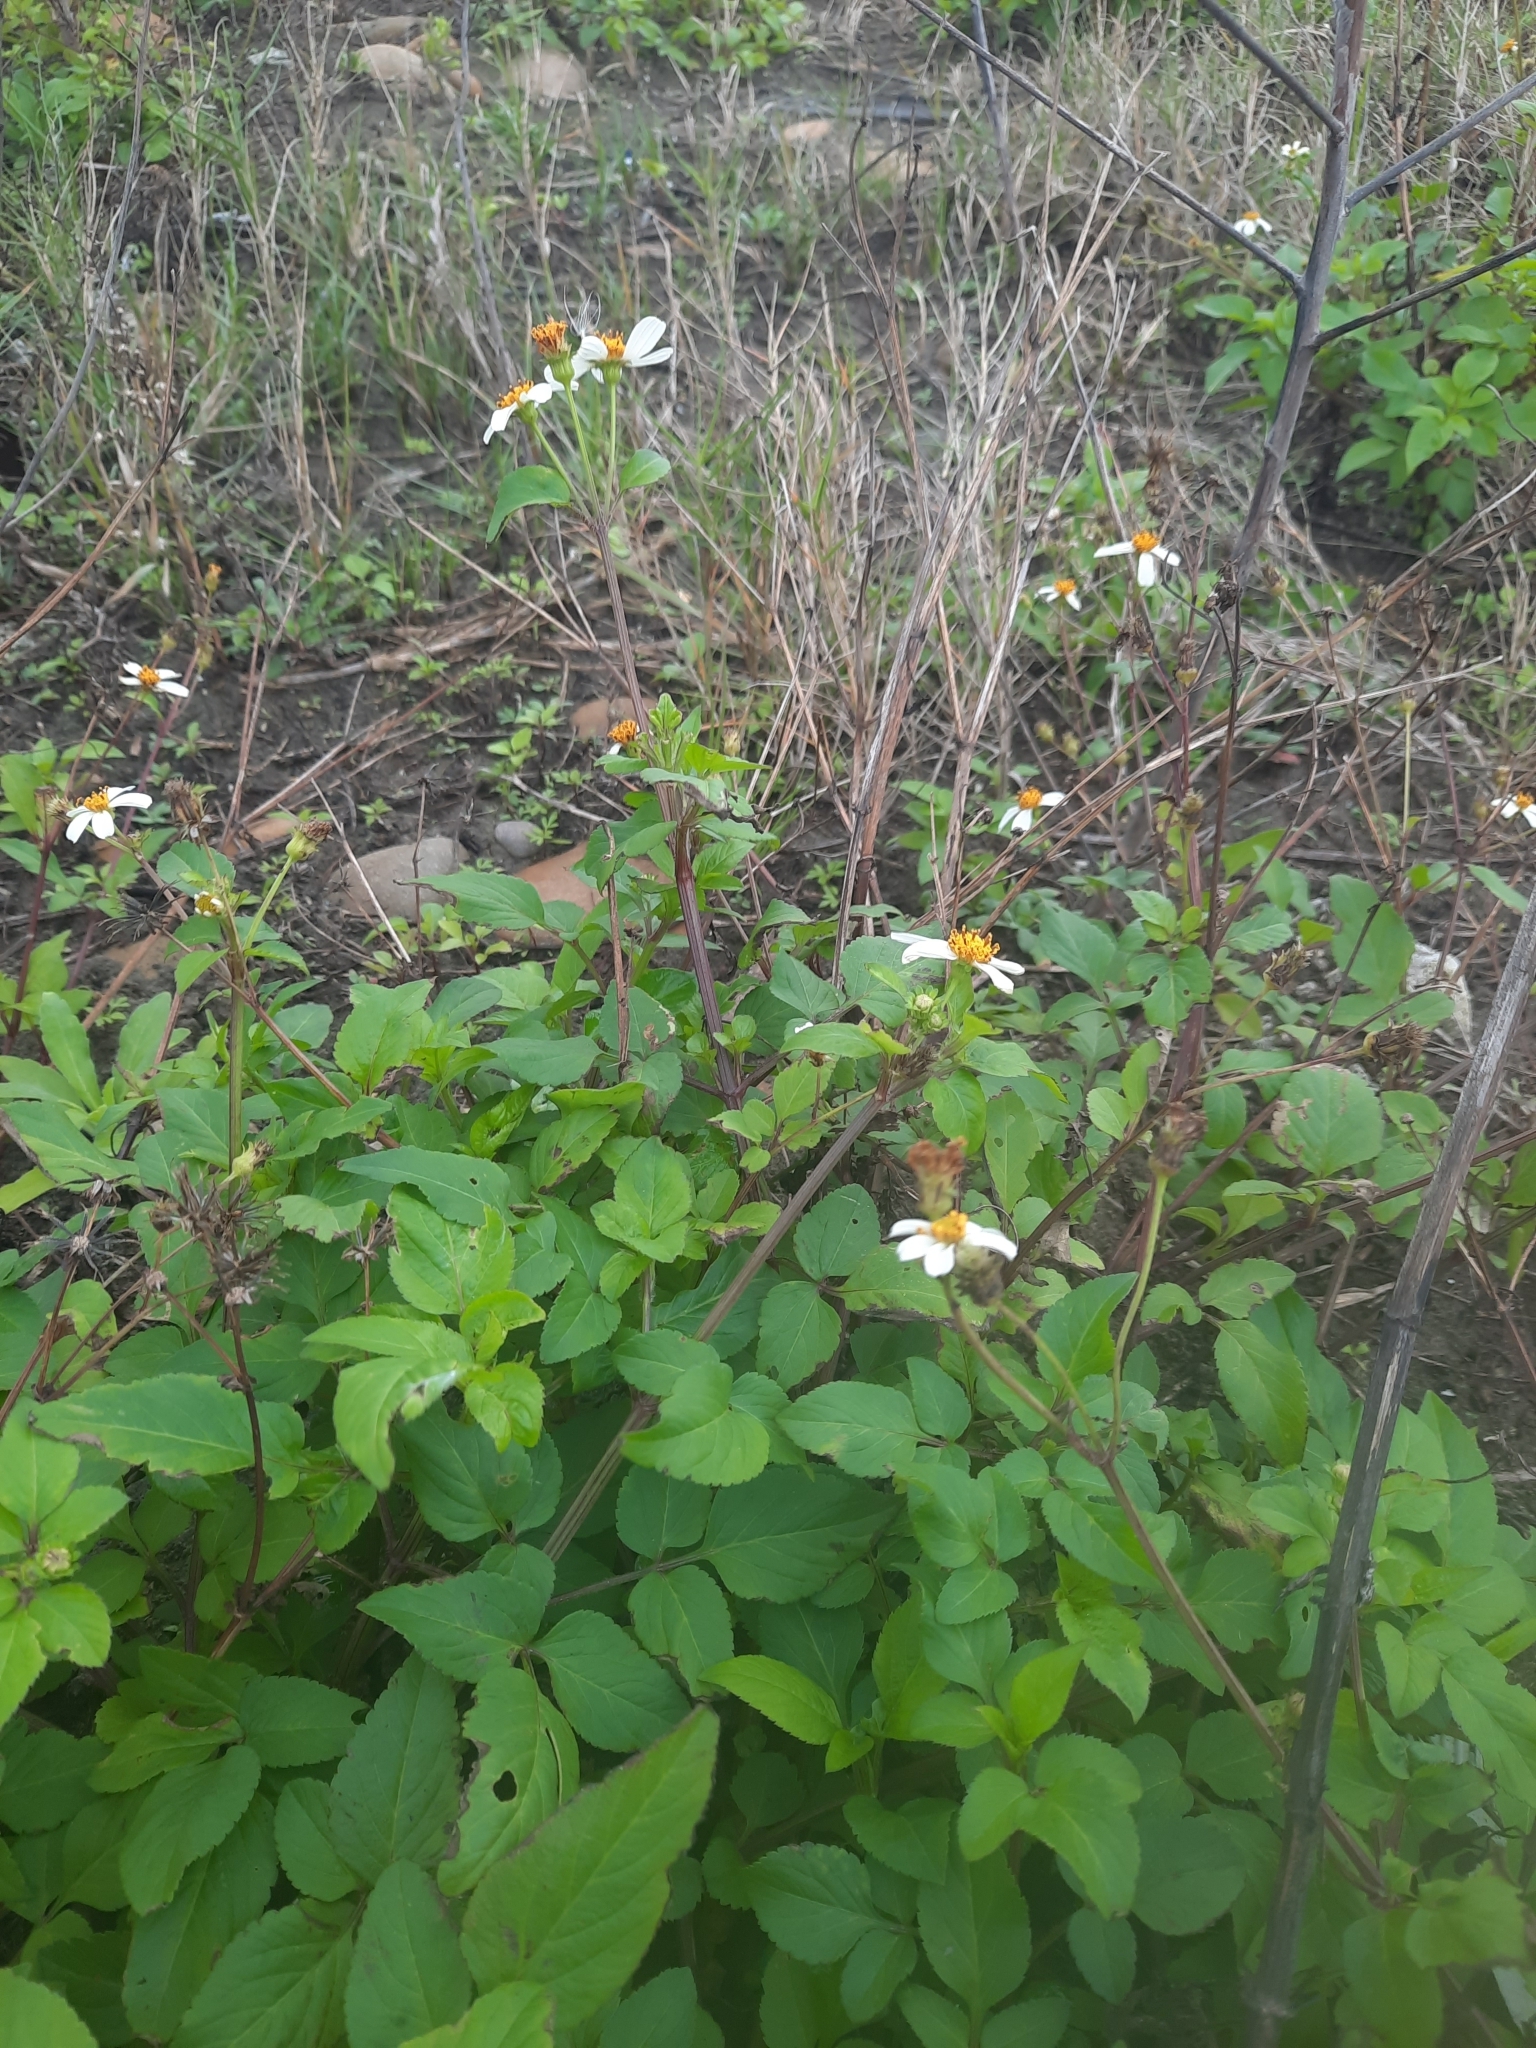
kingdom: Plantae
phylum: Tracheophyta
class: Magnoliopsida
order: Asterales
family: Asteraceae
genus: Bidens
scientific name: Bidens alba
